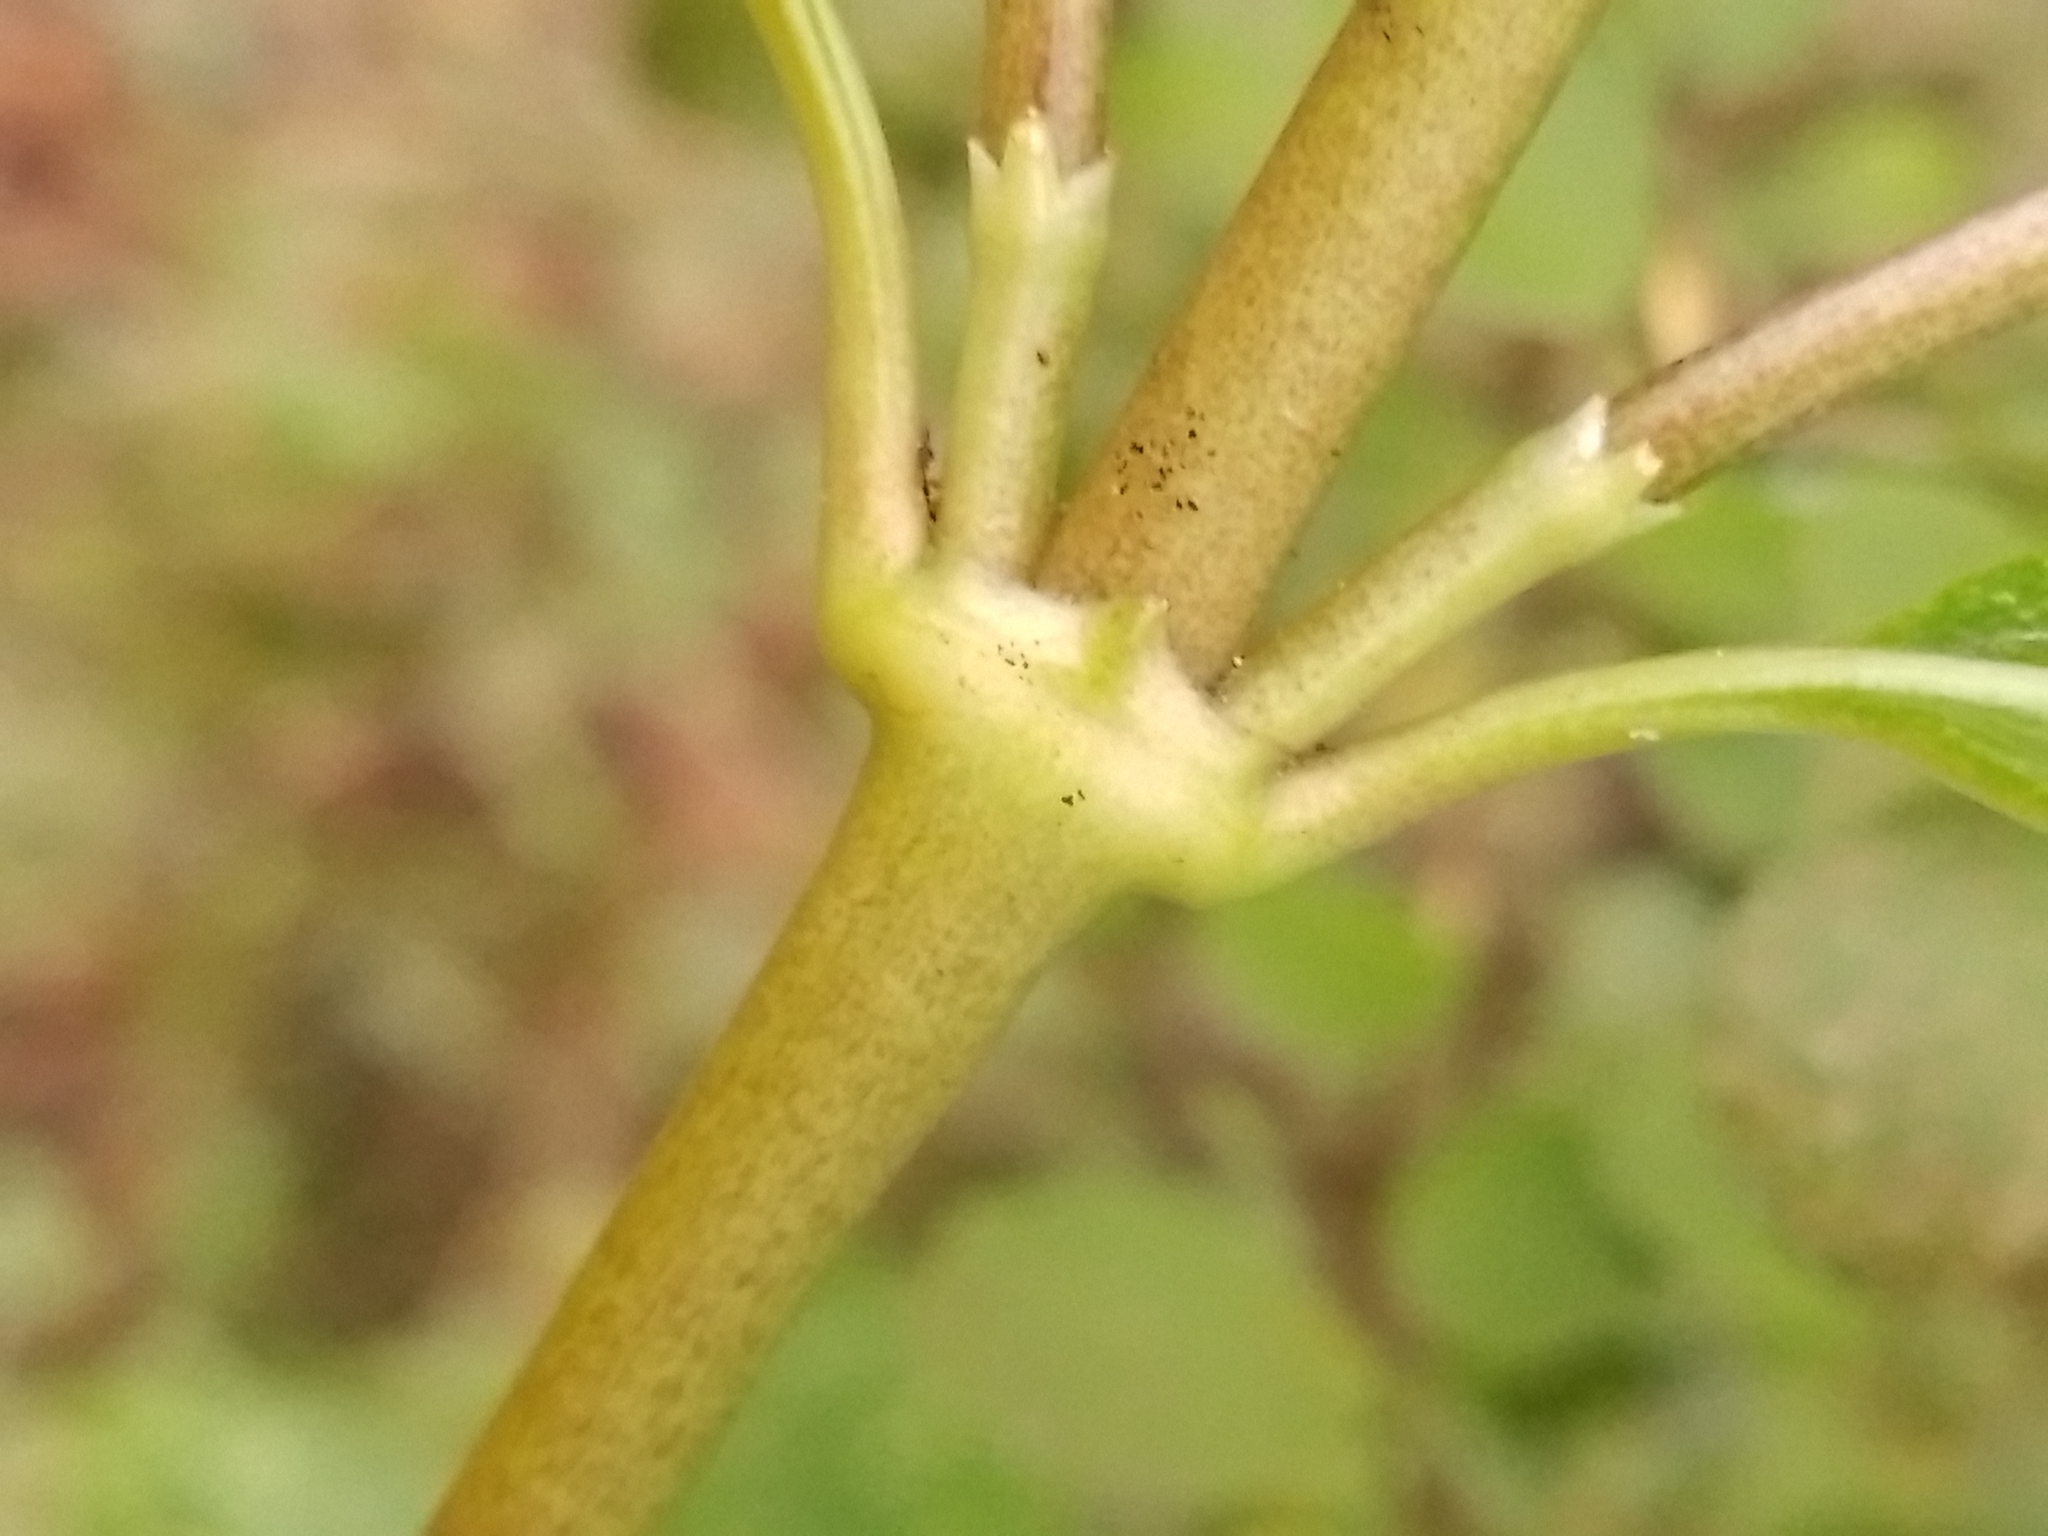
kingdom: Plantae
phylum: Tracheophyta
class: Magnoliopsida
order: Gentianales
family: Rubiaceae
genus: Coprosma
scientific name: Coprosma lucida
